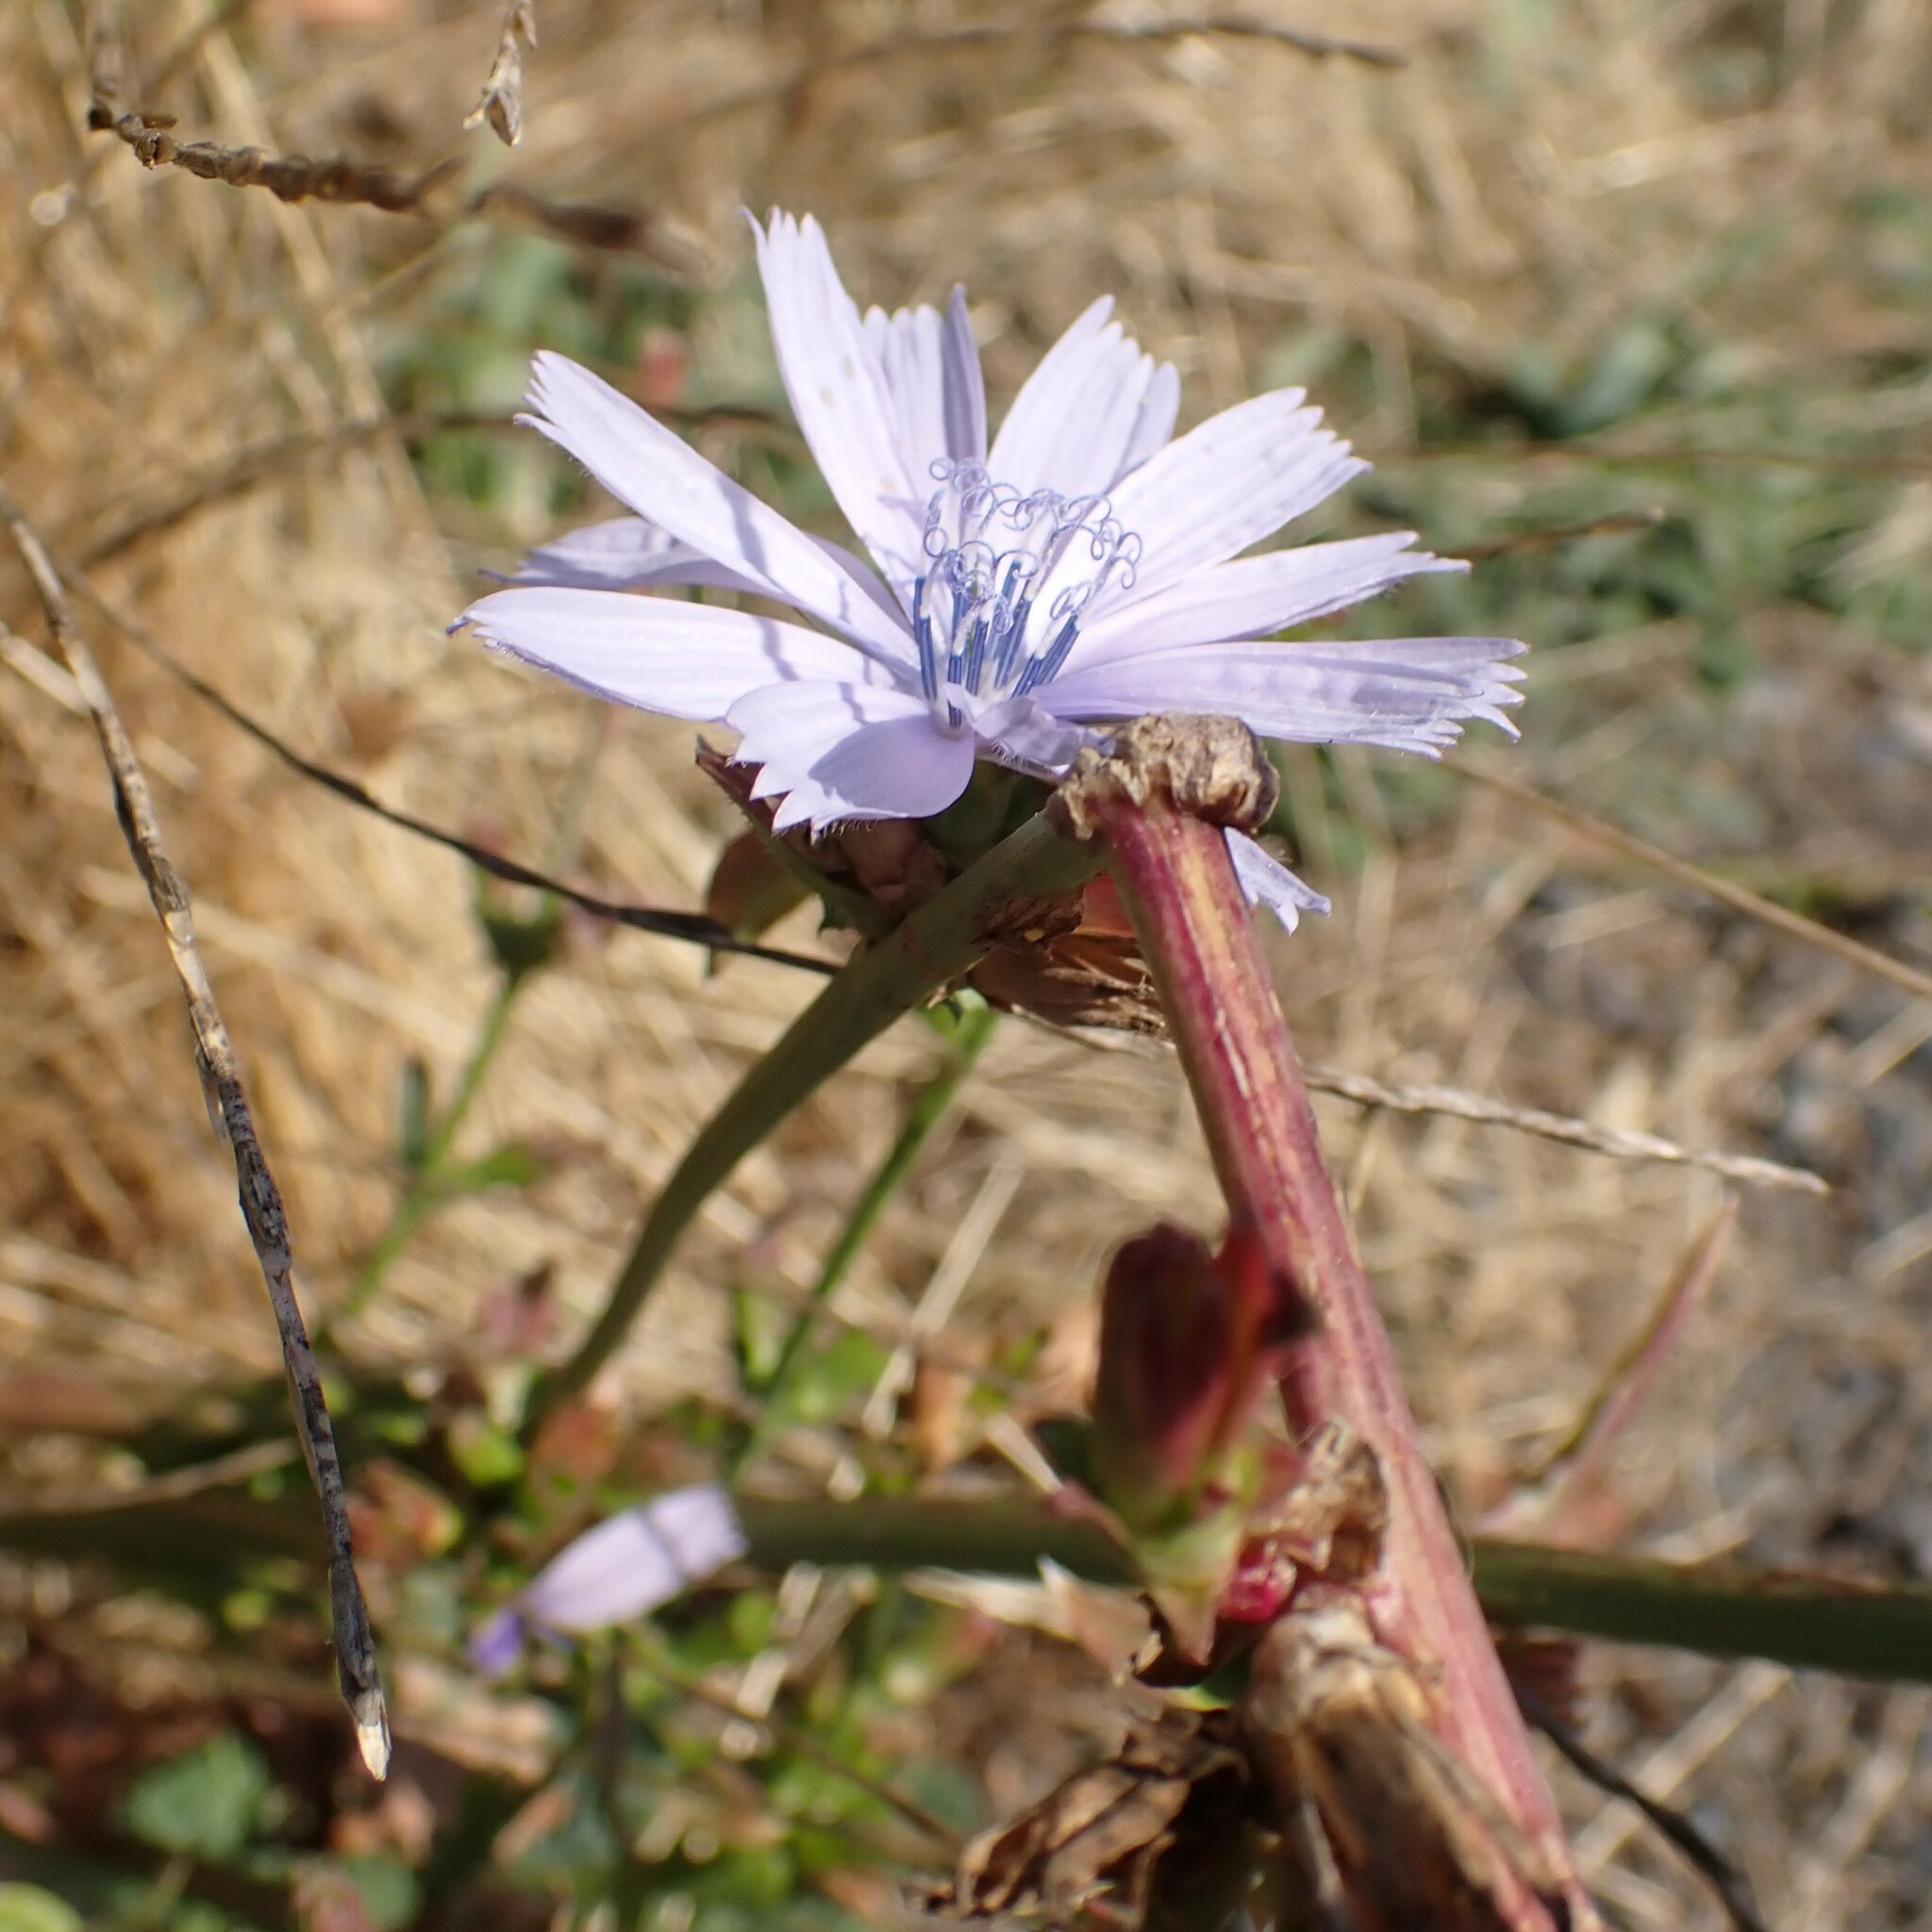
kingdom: Plantae
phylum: Tracheophyta
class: Magnoliopsida
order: Asterales
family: Asteraceae
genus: Cichorium
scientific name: Cichorium intybus
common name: Chicory
